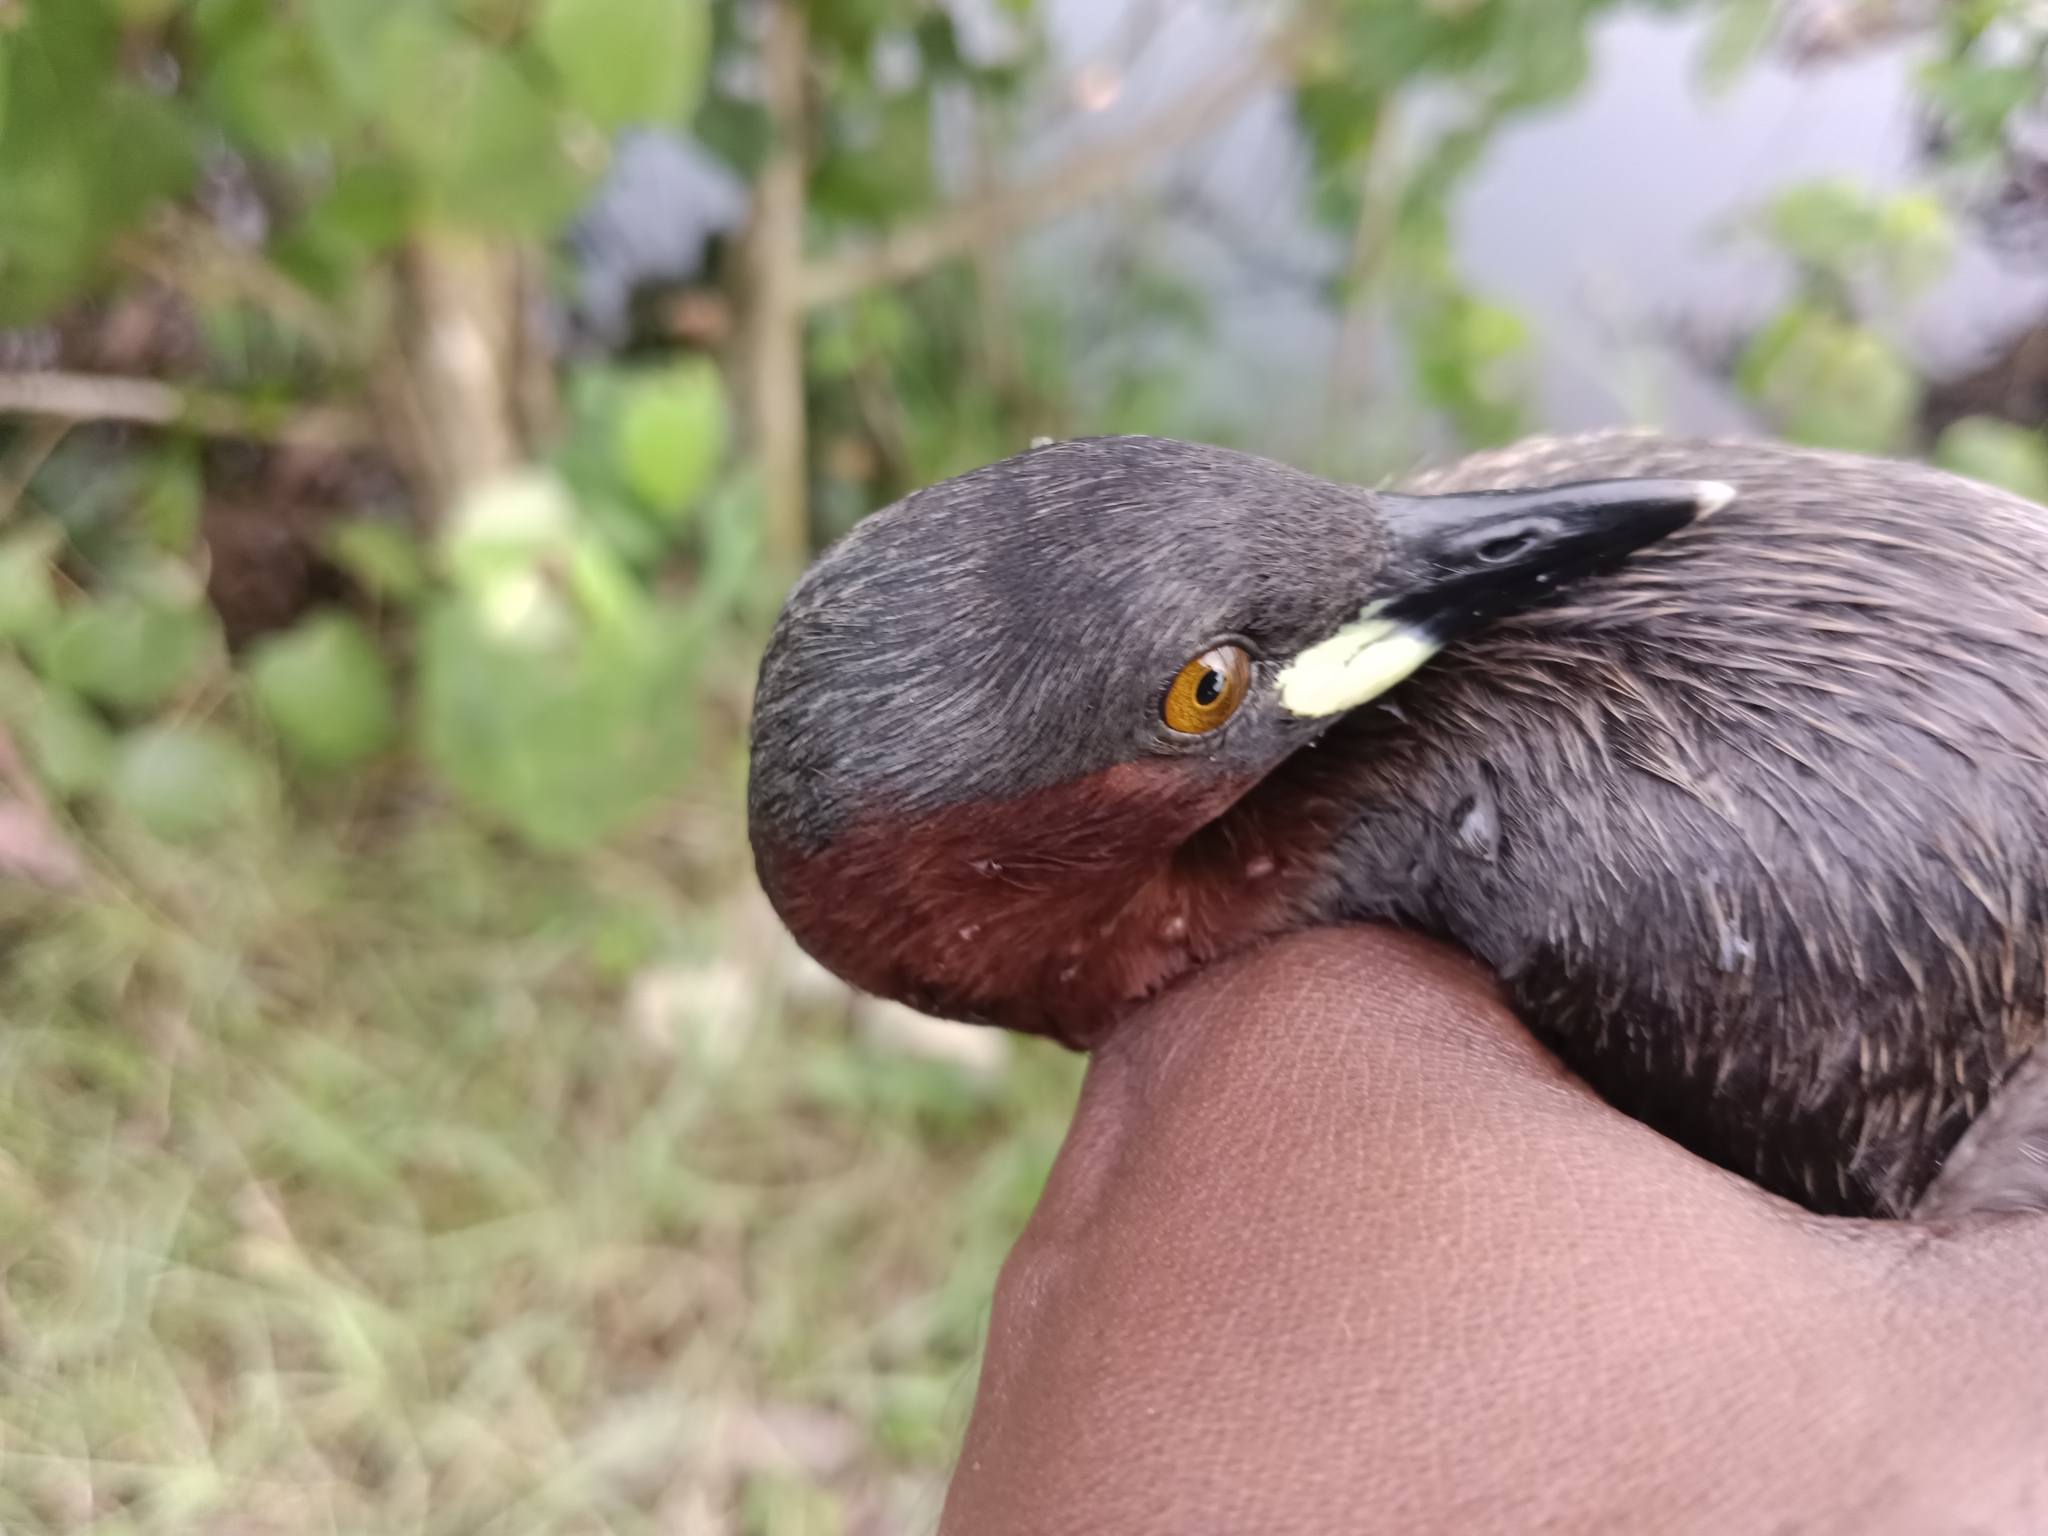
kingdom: Animalia
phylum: Chordata
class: Aves
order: Podicipediformes
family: Podicipedidae
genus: Tachybaptus
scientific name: Tachybaptus ruficollis
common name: Little grebe
